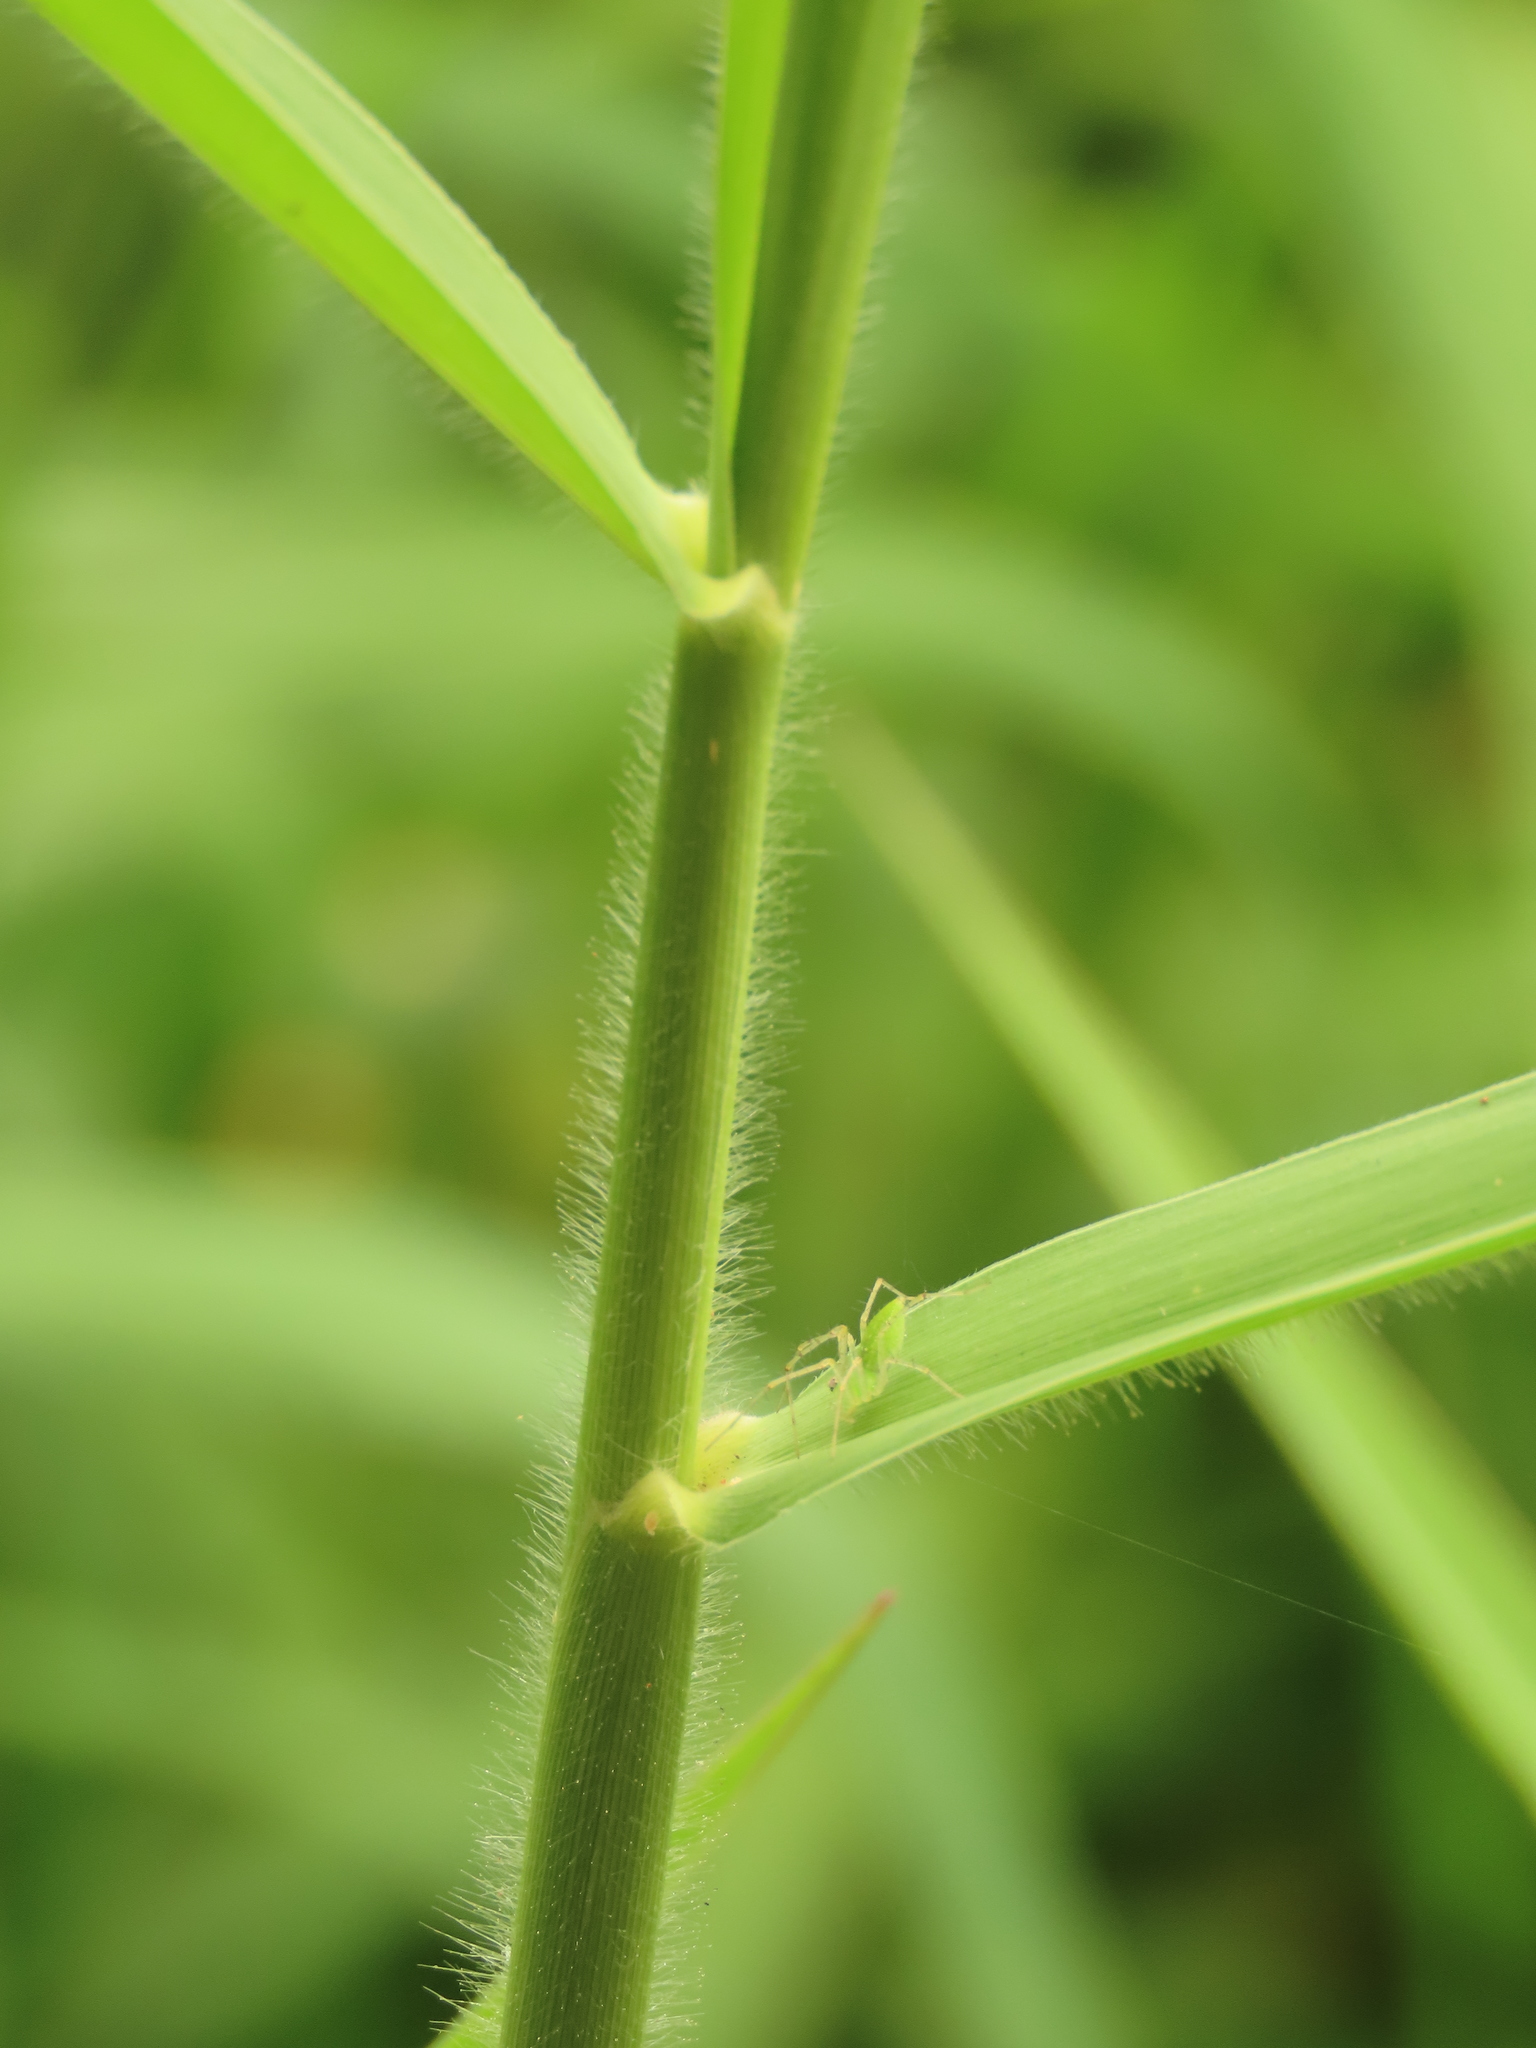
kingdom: Plantae
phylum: Tracheophyta
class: Liliopsida
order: Poales
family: Poaceae
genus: Urochloa
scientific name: Urochloa mutica
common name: Para grass
